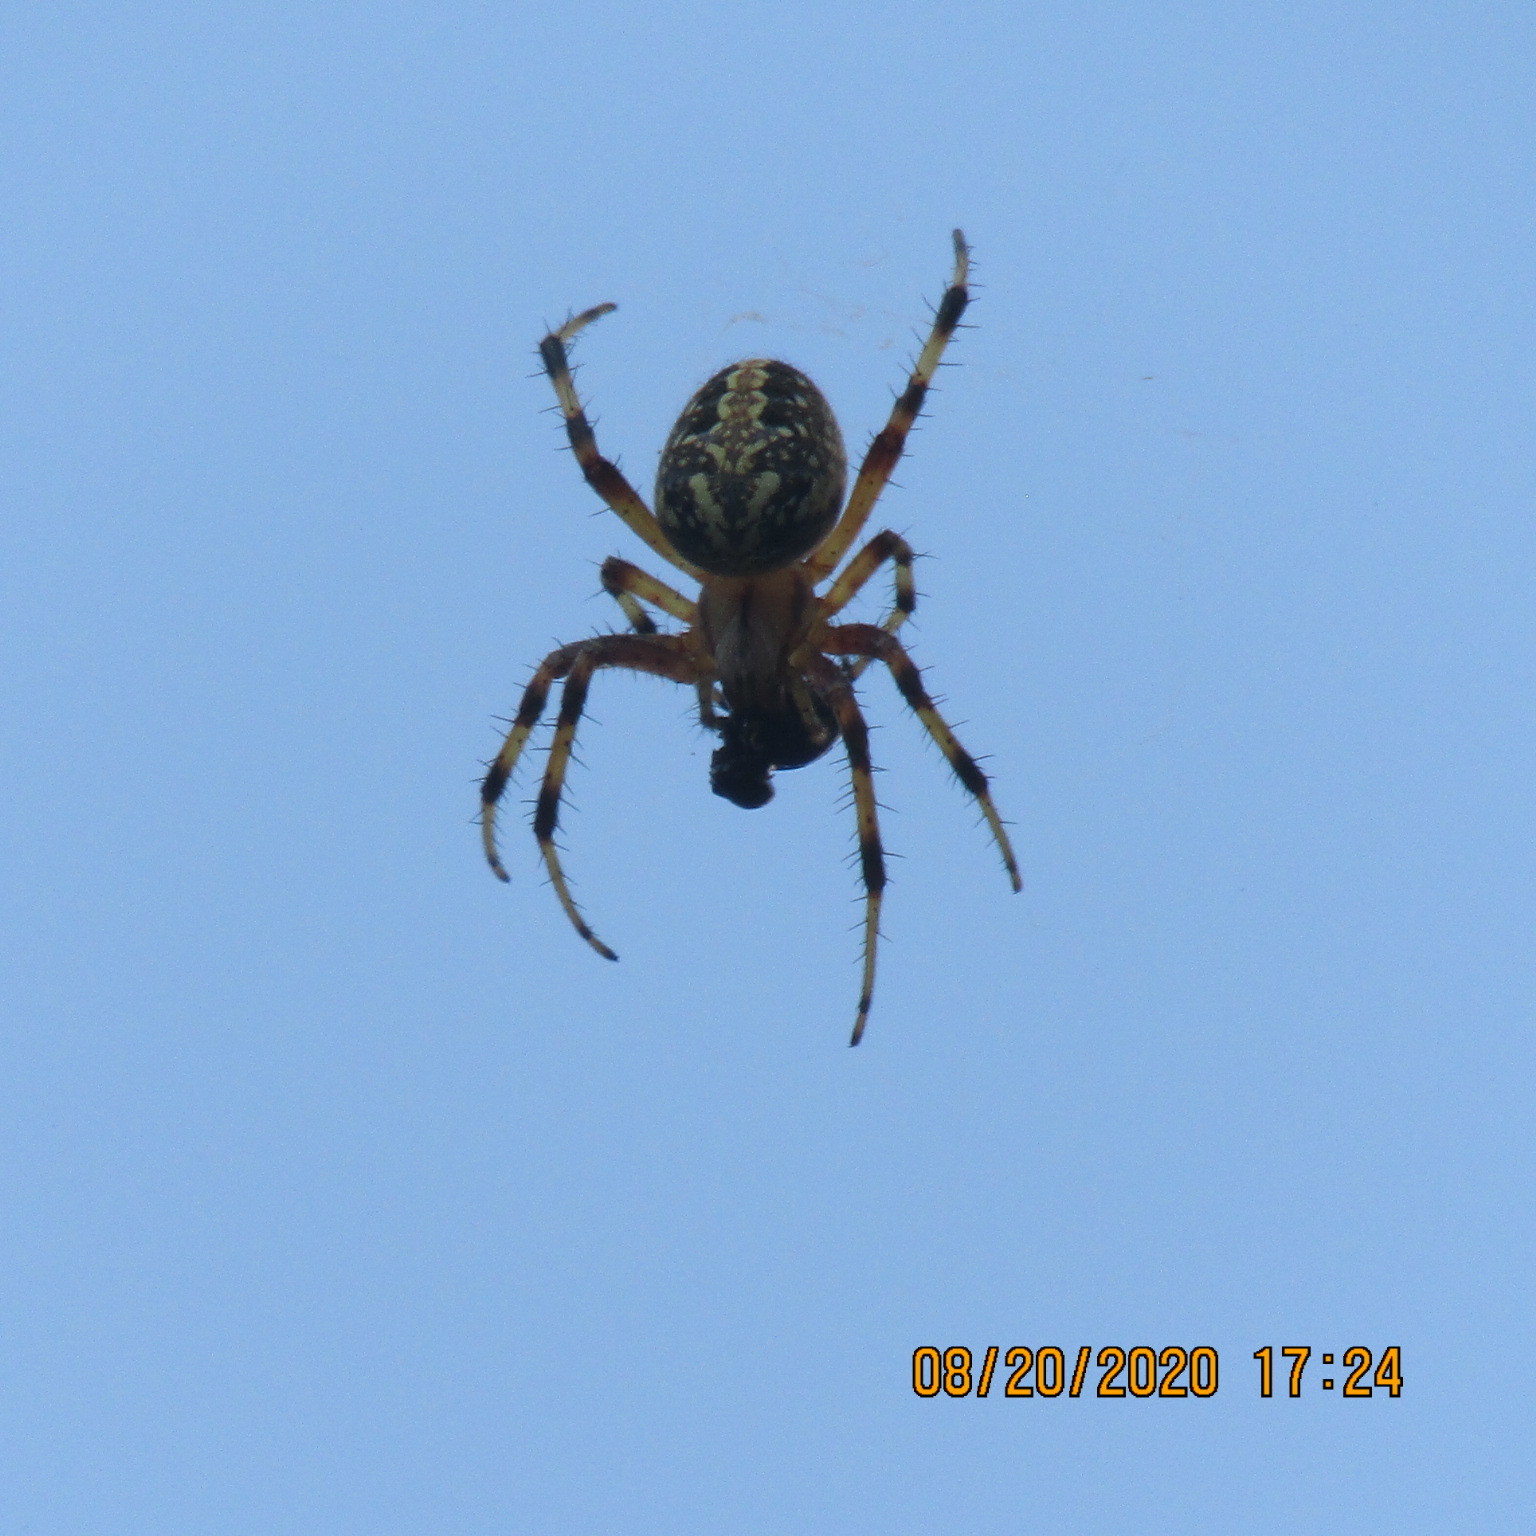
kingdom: Animalia
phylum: Arthropoda
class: Arachnida
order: Araneae
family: Araneidae
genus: Neoscona
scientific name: Neoscona oaxacensis
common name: Orb weavers
